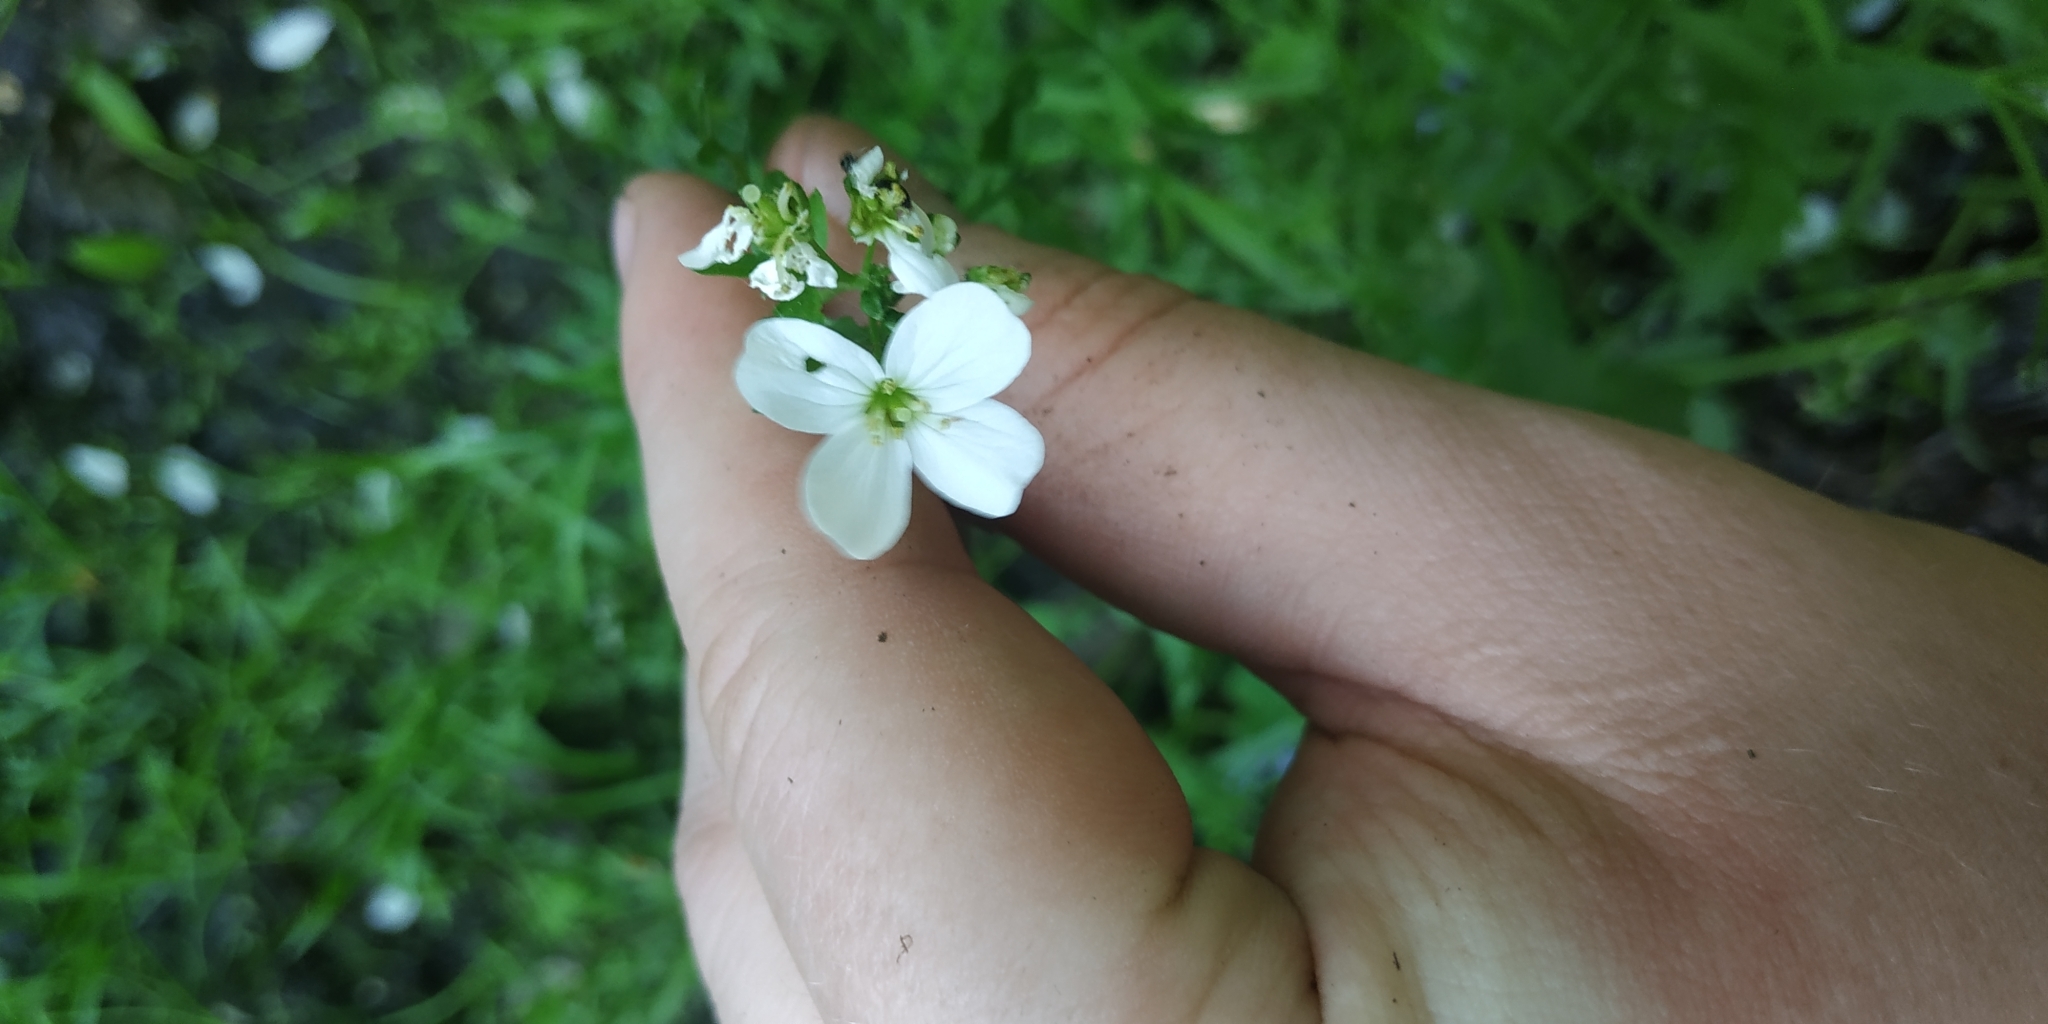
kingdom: Plantae
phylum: Tracheophyta
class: Magnoliopsida
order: Brassicales
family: Brassicaceae
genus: Cardamine
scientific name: Cardamine dentata
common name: Toothed bittercress
